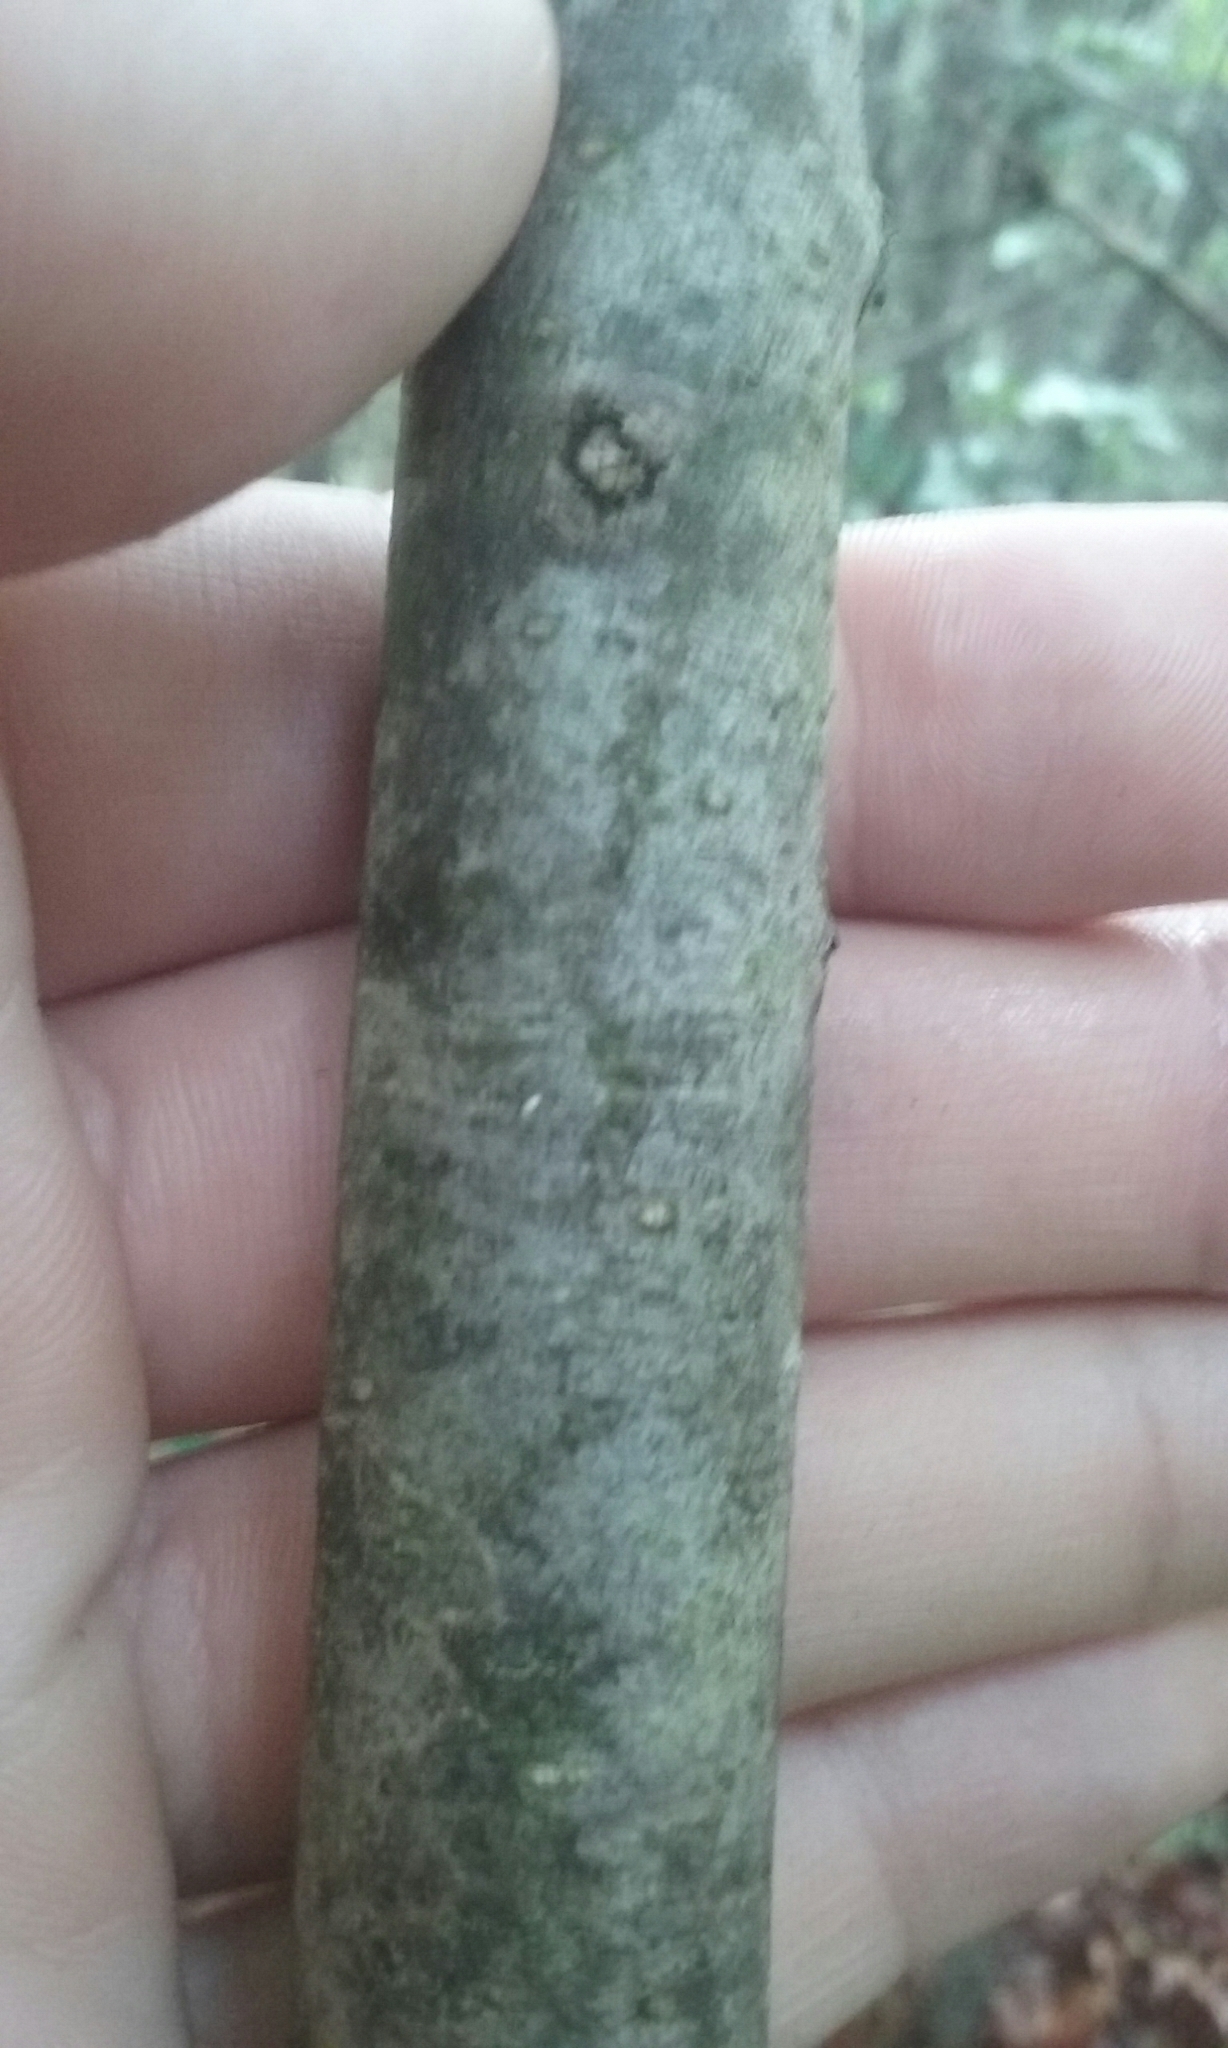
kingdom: Plantae
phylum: Tracheophyta
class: Magnoliopsida
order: Cornales
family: Nyssaceae
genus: Nyssa
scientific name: Nyssa sylvatica
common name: Black tupelo
